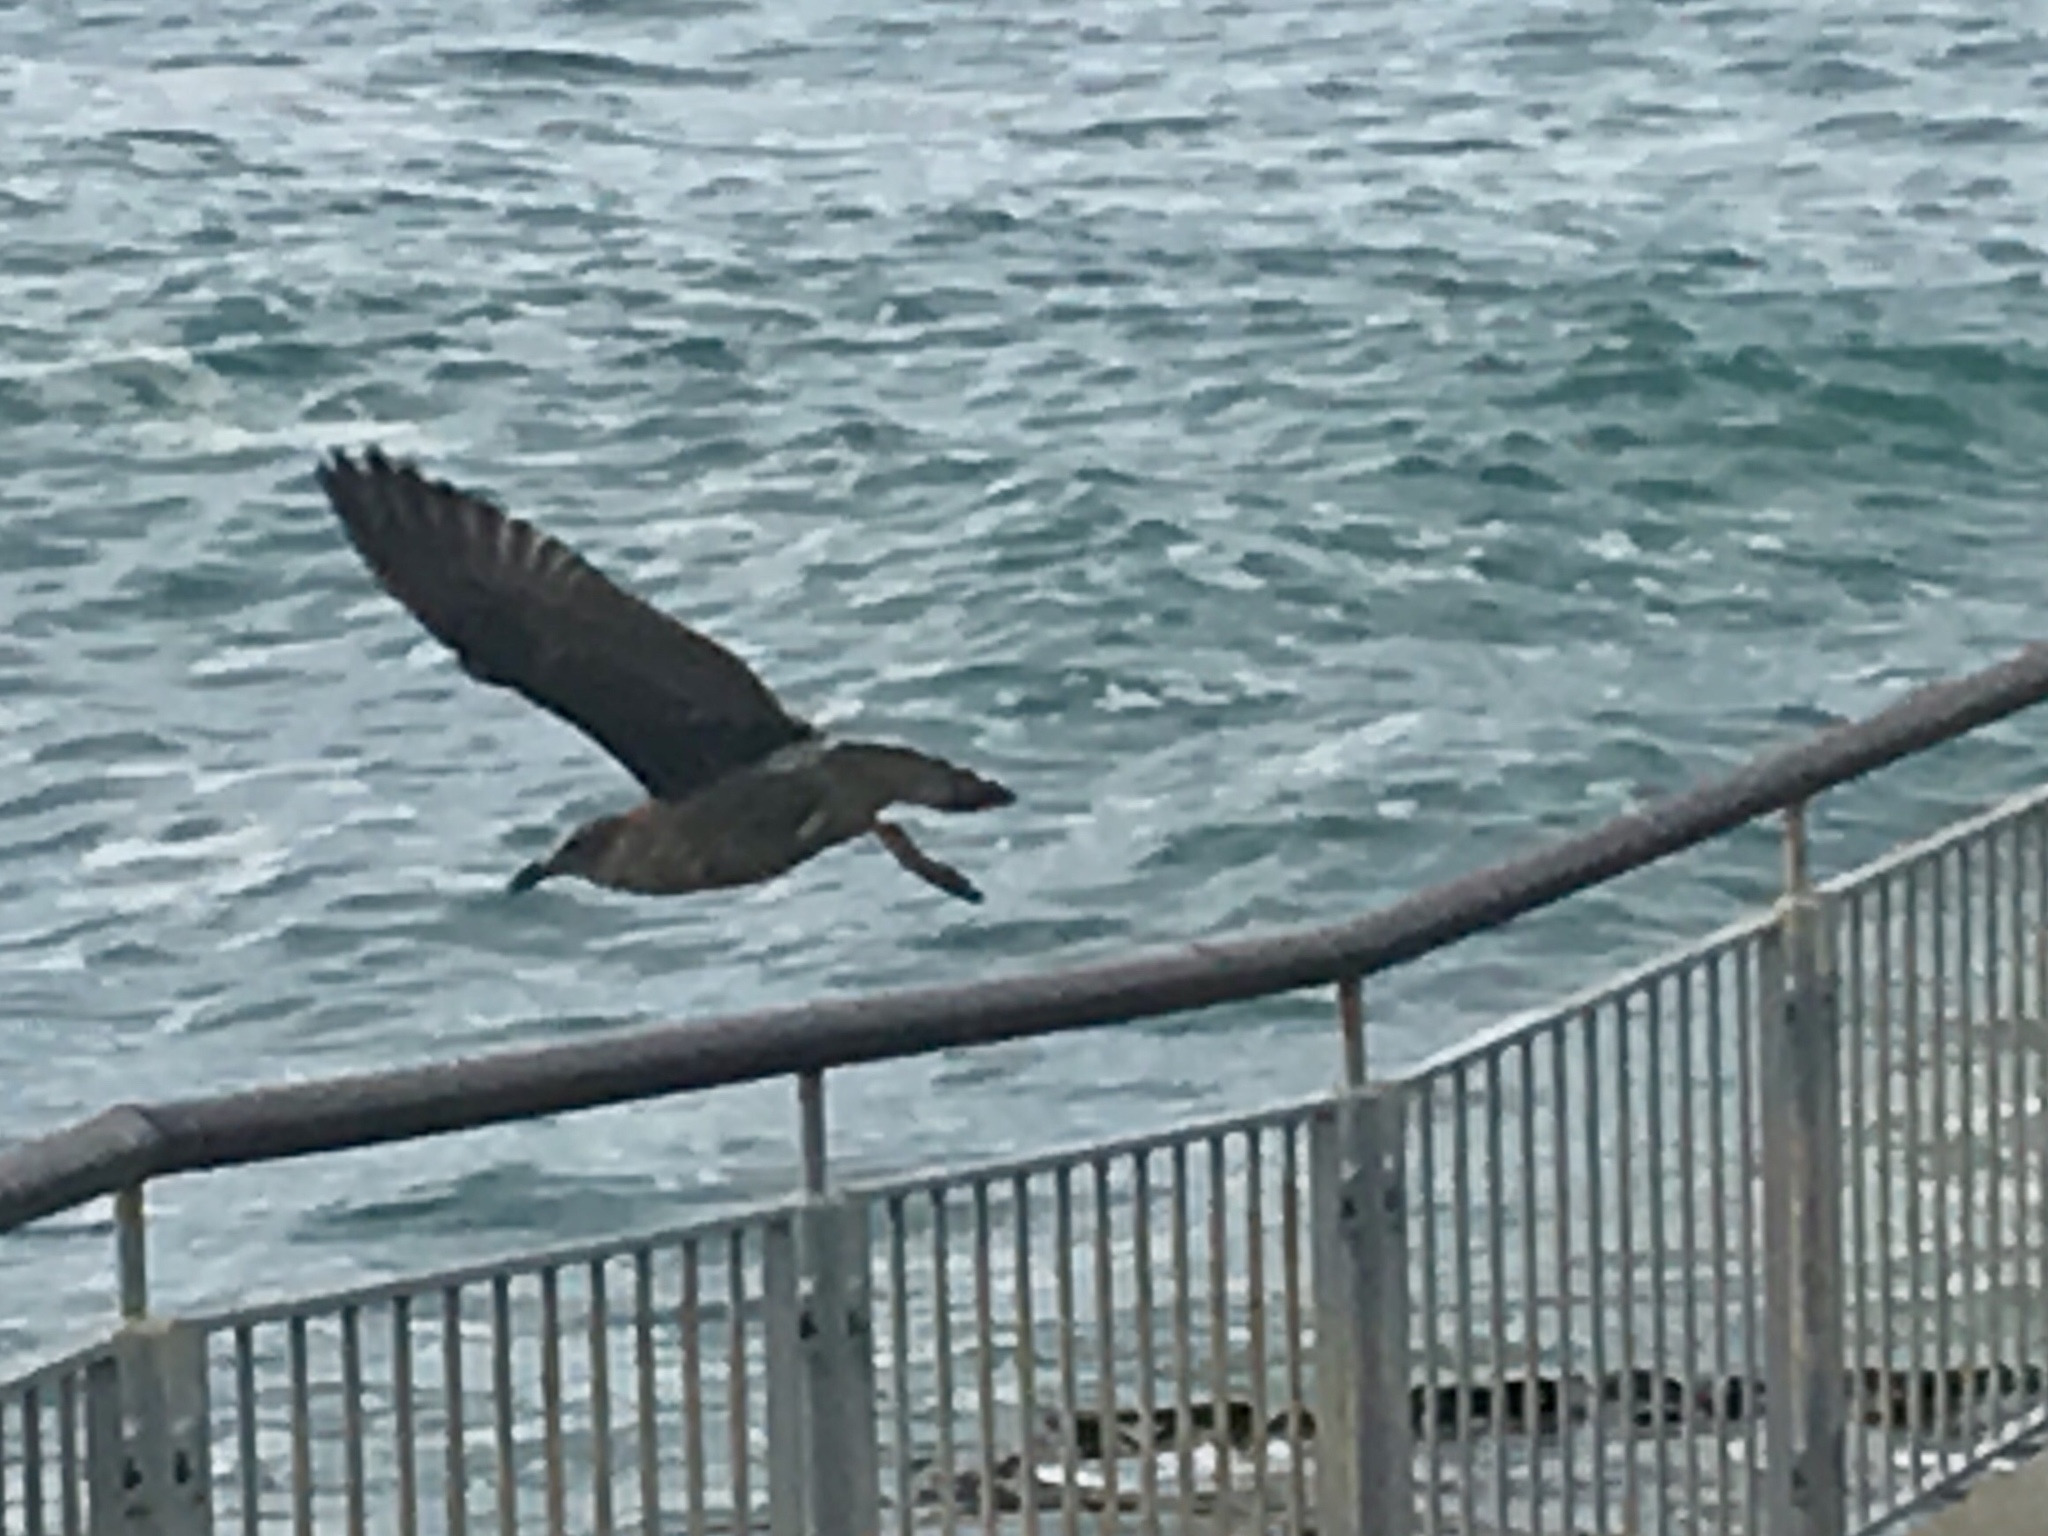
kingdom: Animalia
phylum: Chordata
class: Aves
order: Charadriiformes
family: Laridae
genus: Larus
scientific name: Larus dominicanus
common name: Kelp gull
